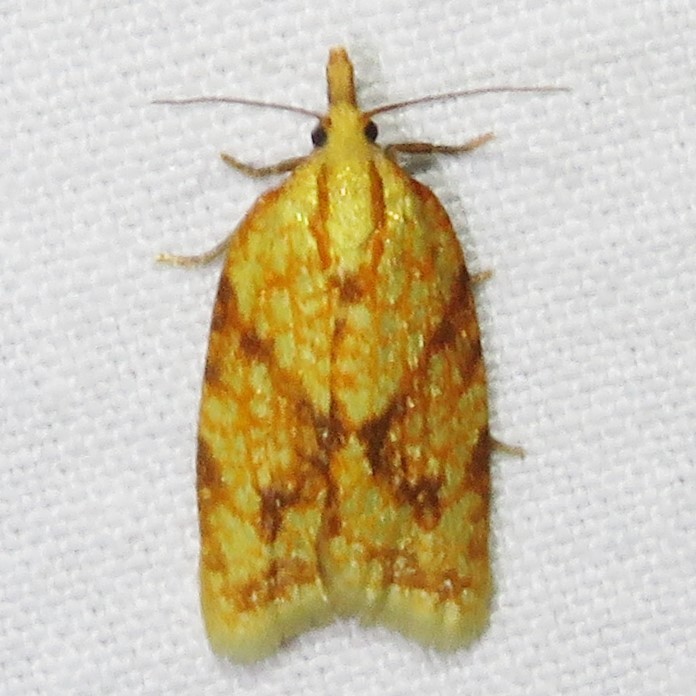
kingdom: Animalia
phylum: Arthropoda
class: Insecta
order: Lepidoptera
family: Tortricidae
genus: Sparganothis
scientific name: Sparganothis sulfureana
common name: Sparganothis fruitworm moth
